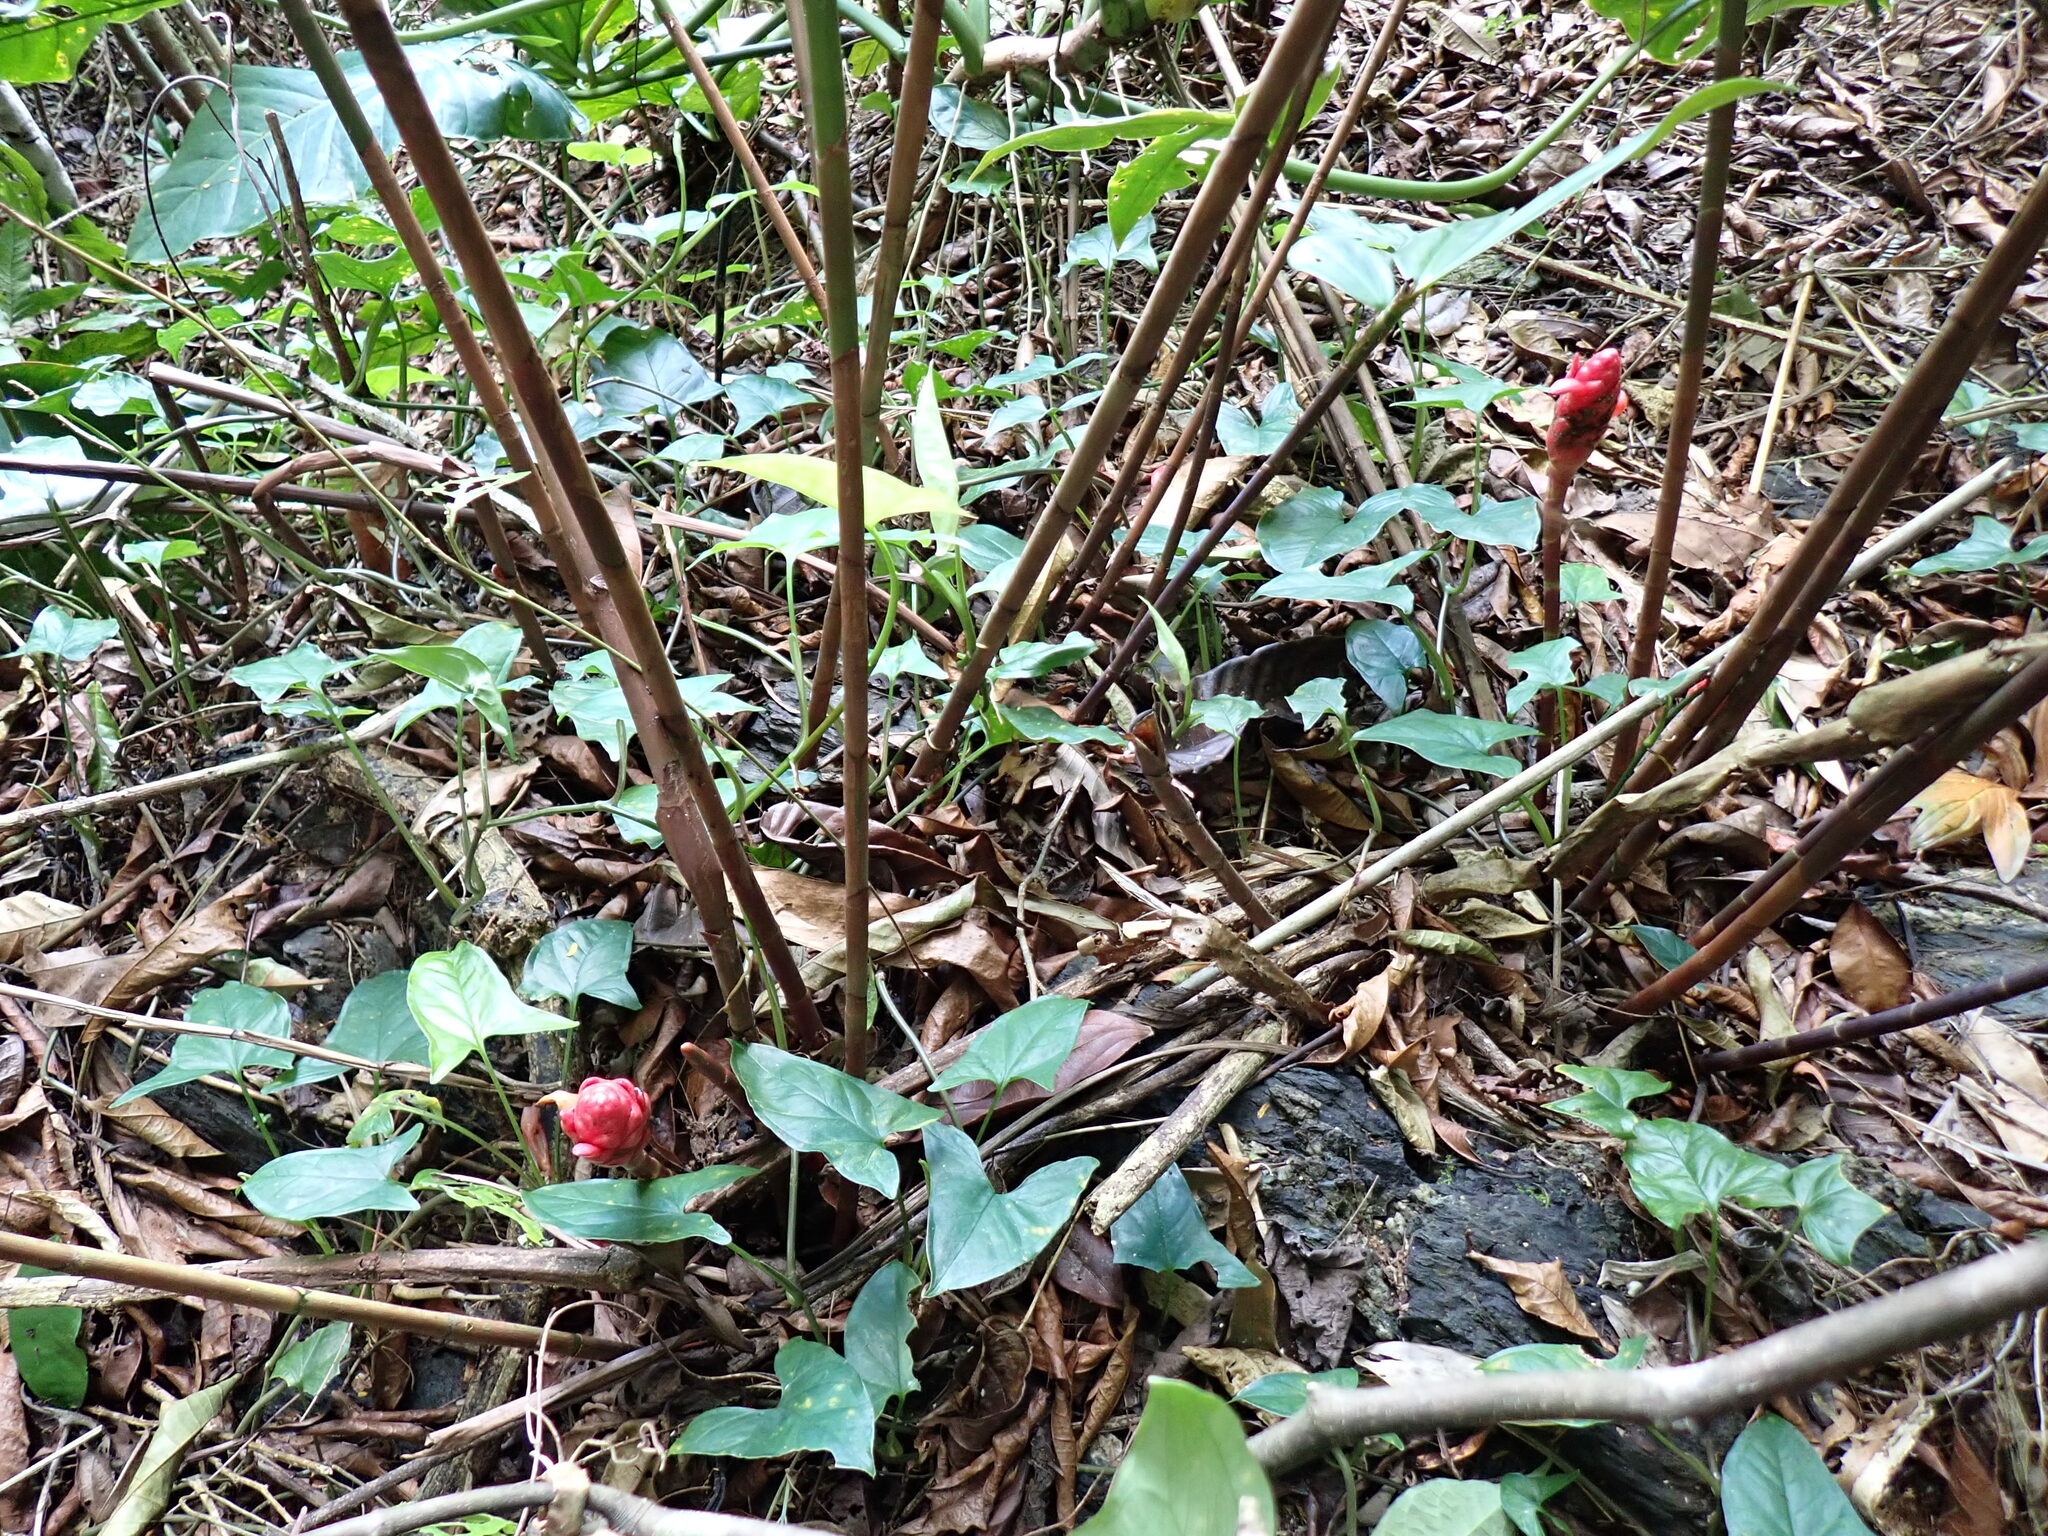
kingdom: Plantae
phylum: Tracheophyta
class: Liliopsida
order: Zingiberales
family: Costaceae
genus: Costus
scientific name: Costus erythrothyrsus
